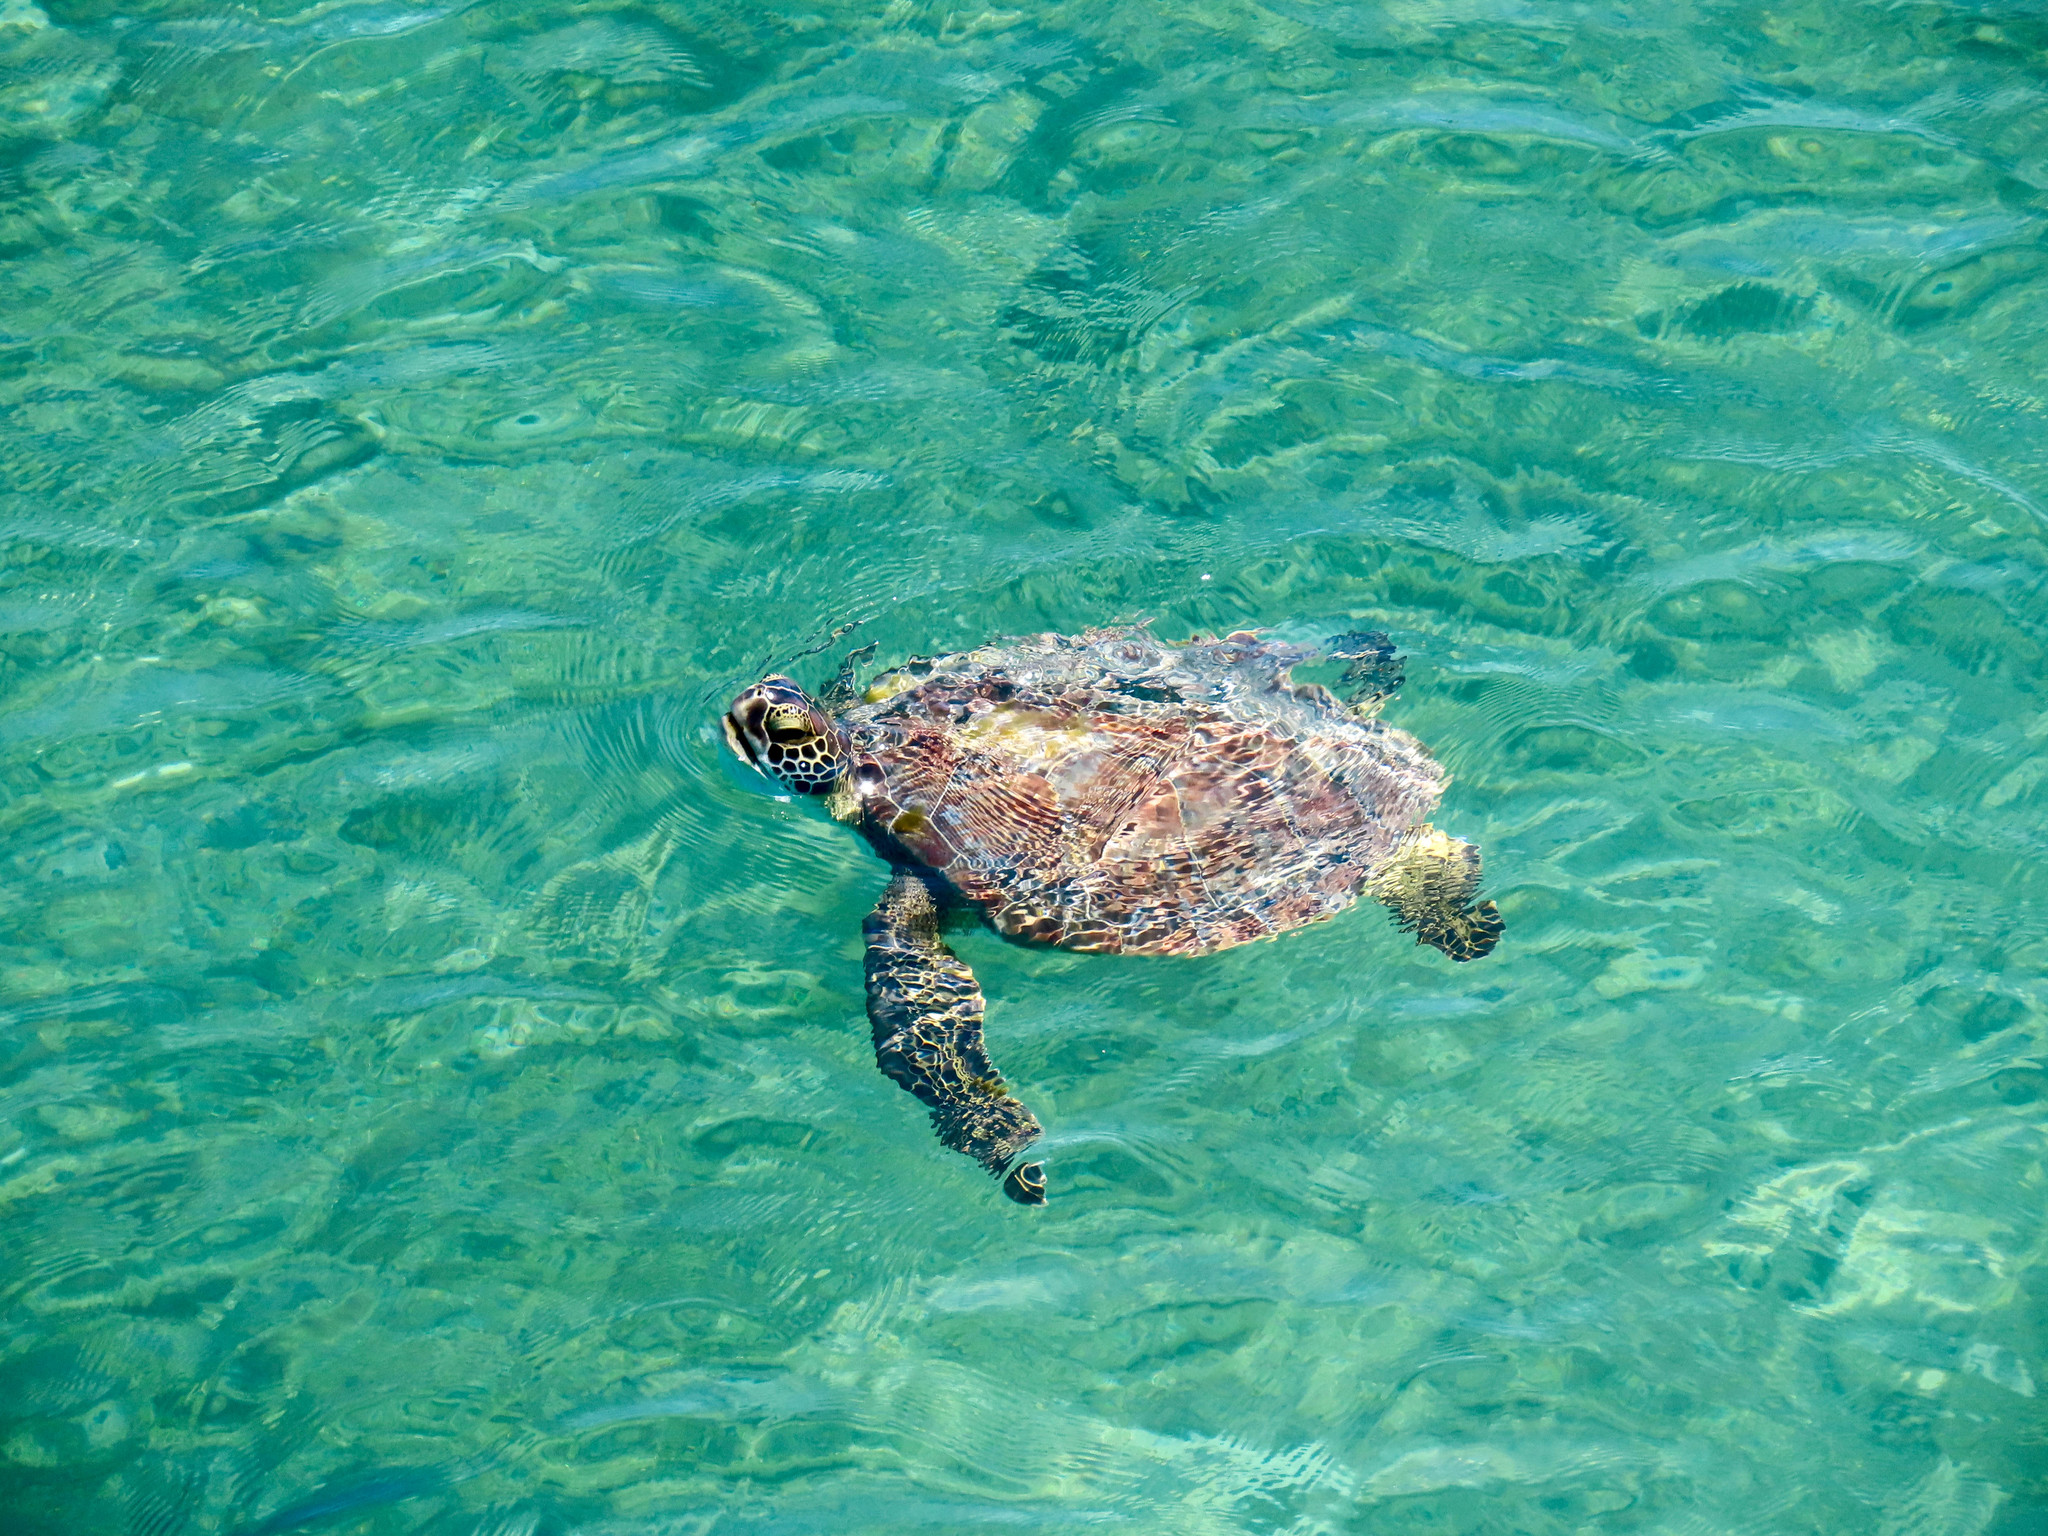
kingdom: Animalia
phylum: Chordata
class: Testudines
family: Cheloniidae
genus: Chelonia
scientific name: Chelonia mydas
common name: Green turtle
